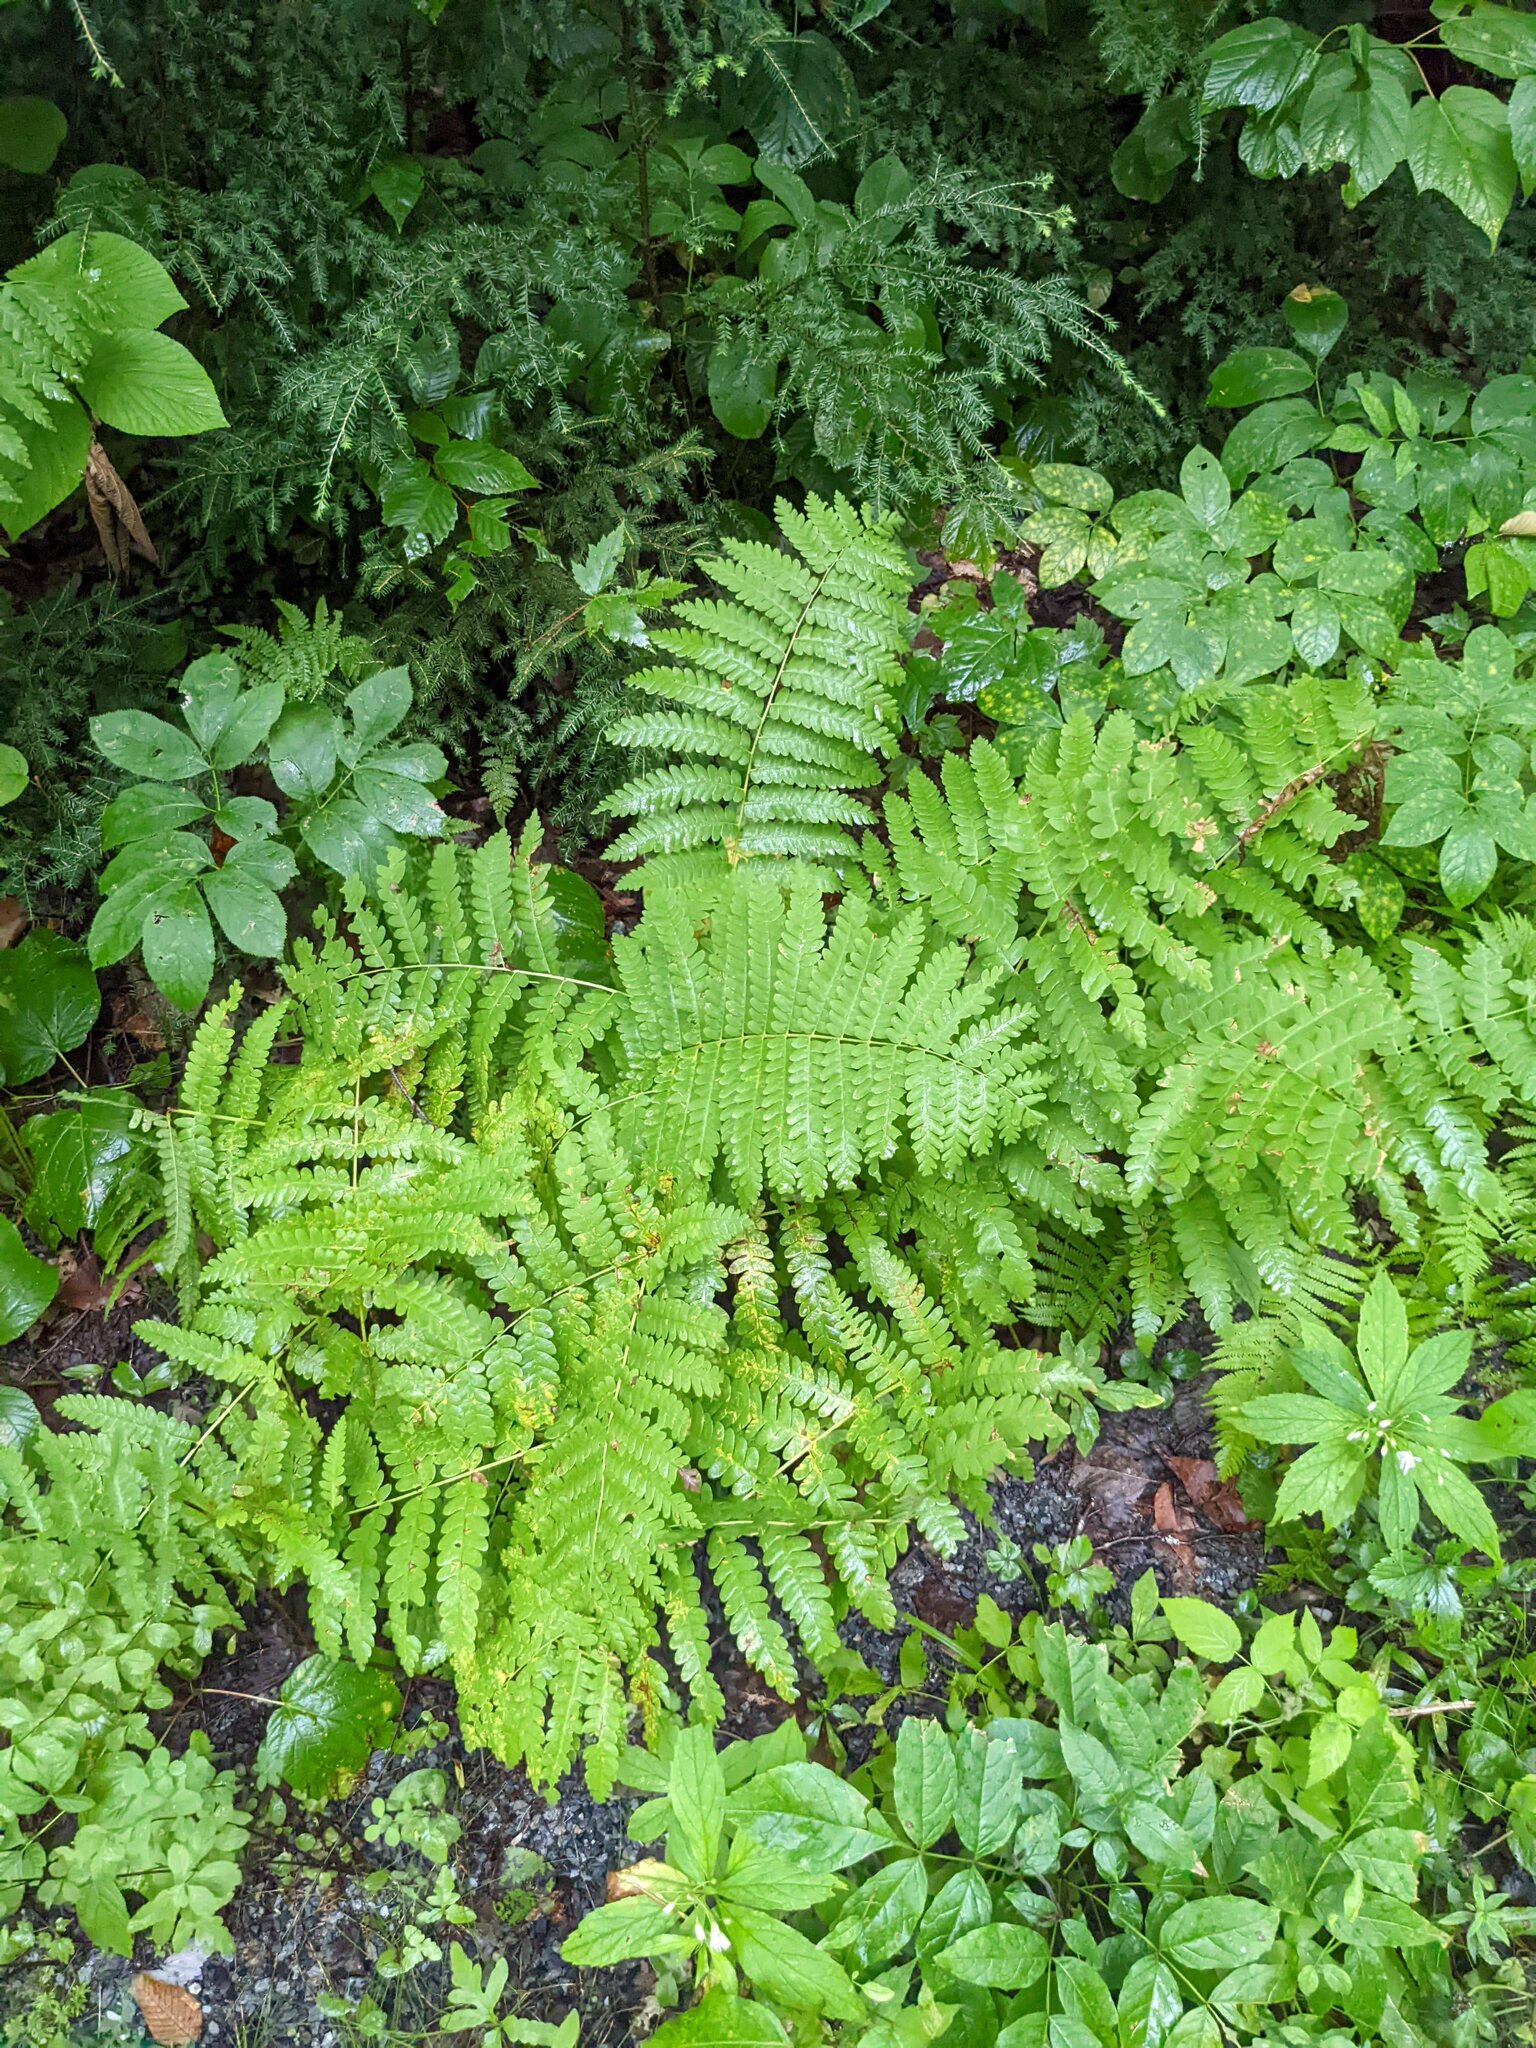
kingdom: Plantae
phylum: Tracheophyta
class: Polypodiopsida
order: Osmundales
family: Osmundaceae
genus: Claytosmunda
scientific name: Claytosmunda claytoniana
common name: Clayton's fern
